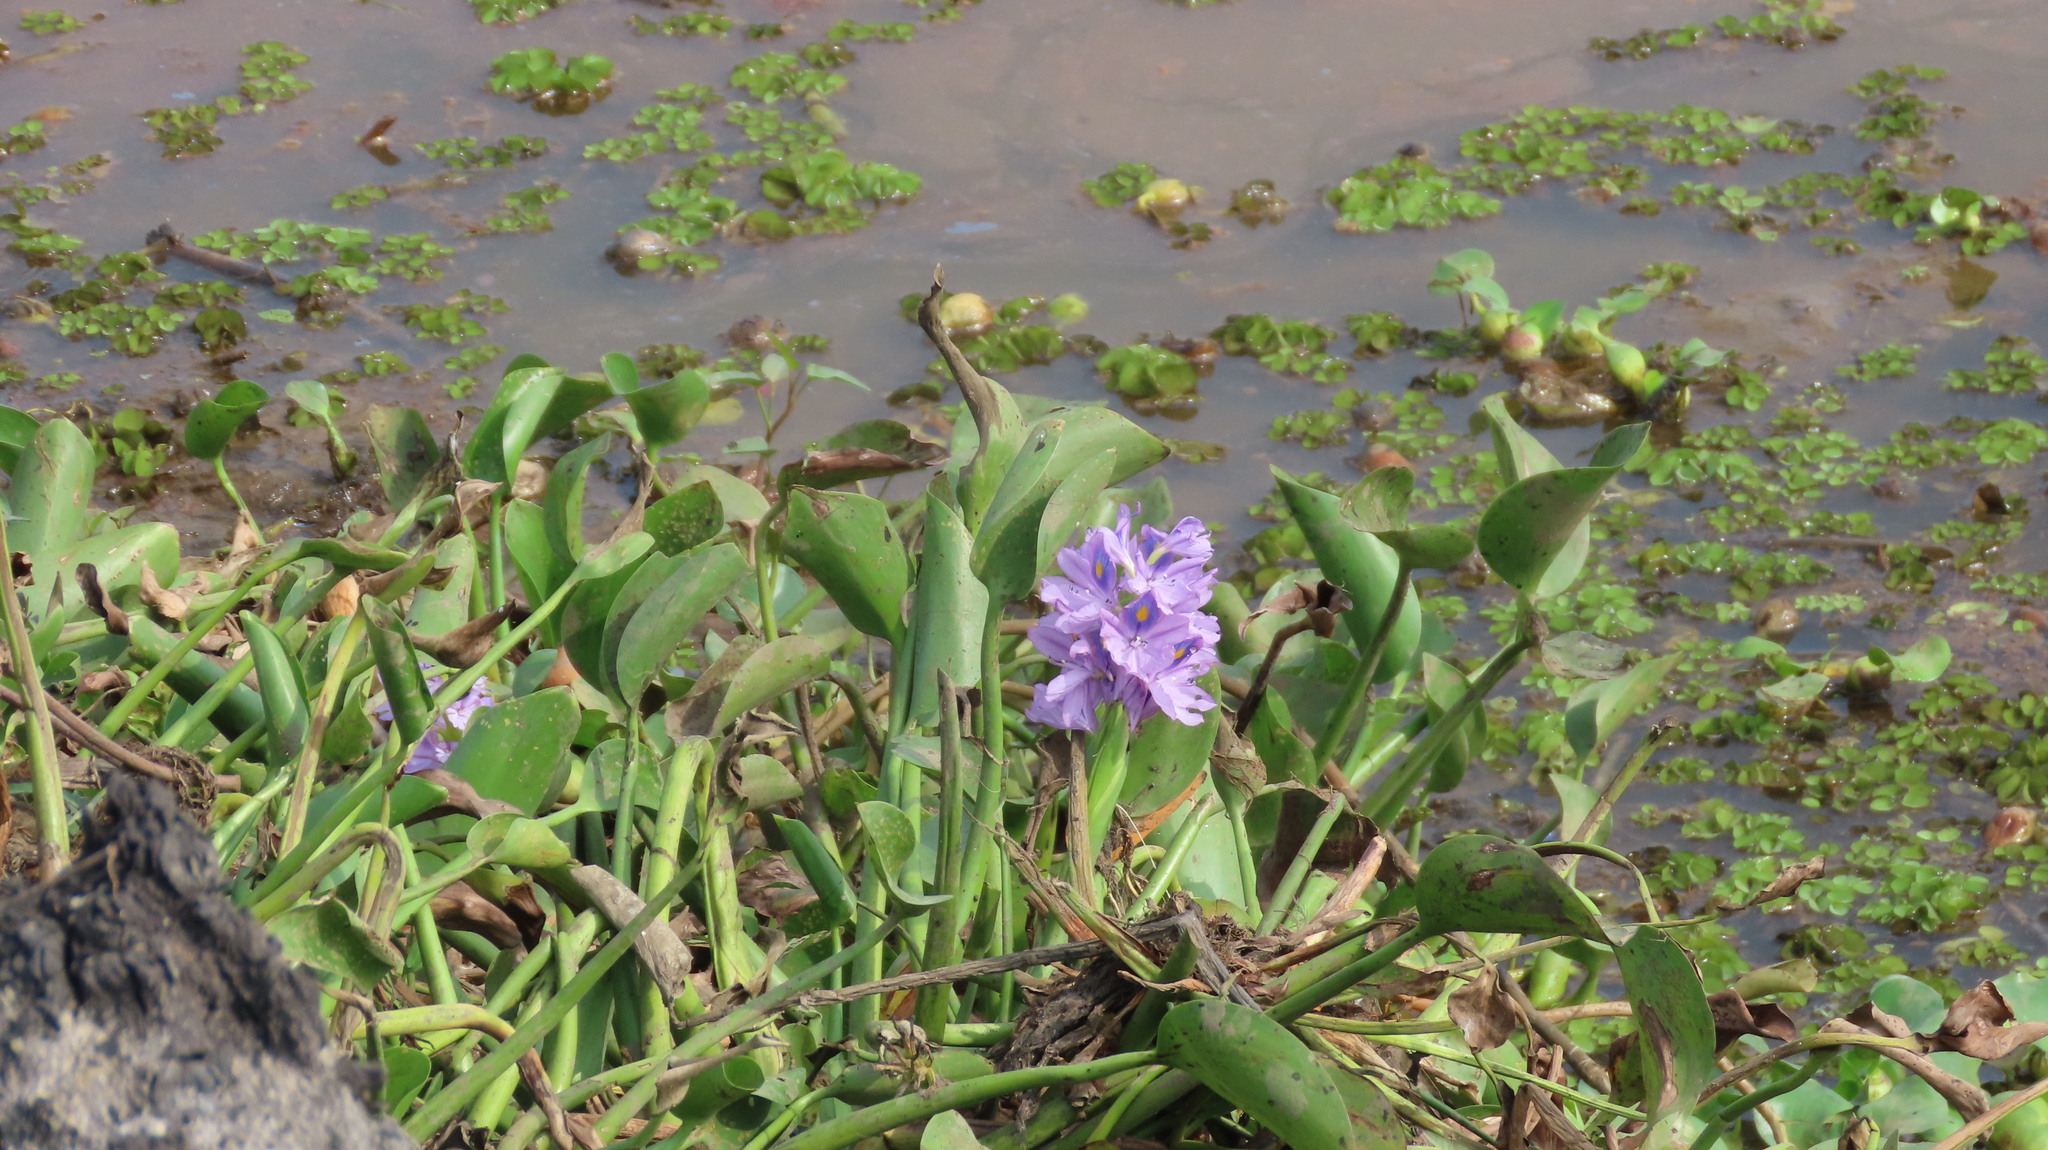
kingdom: Plantae
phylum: Tracheophyta
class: Liliopsida
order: Commelinales
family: Pontederiaceae
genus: Pontederia
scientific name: Pontederia crassipes
